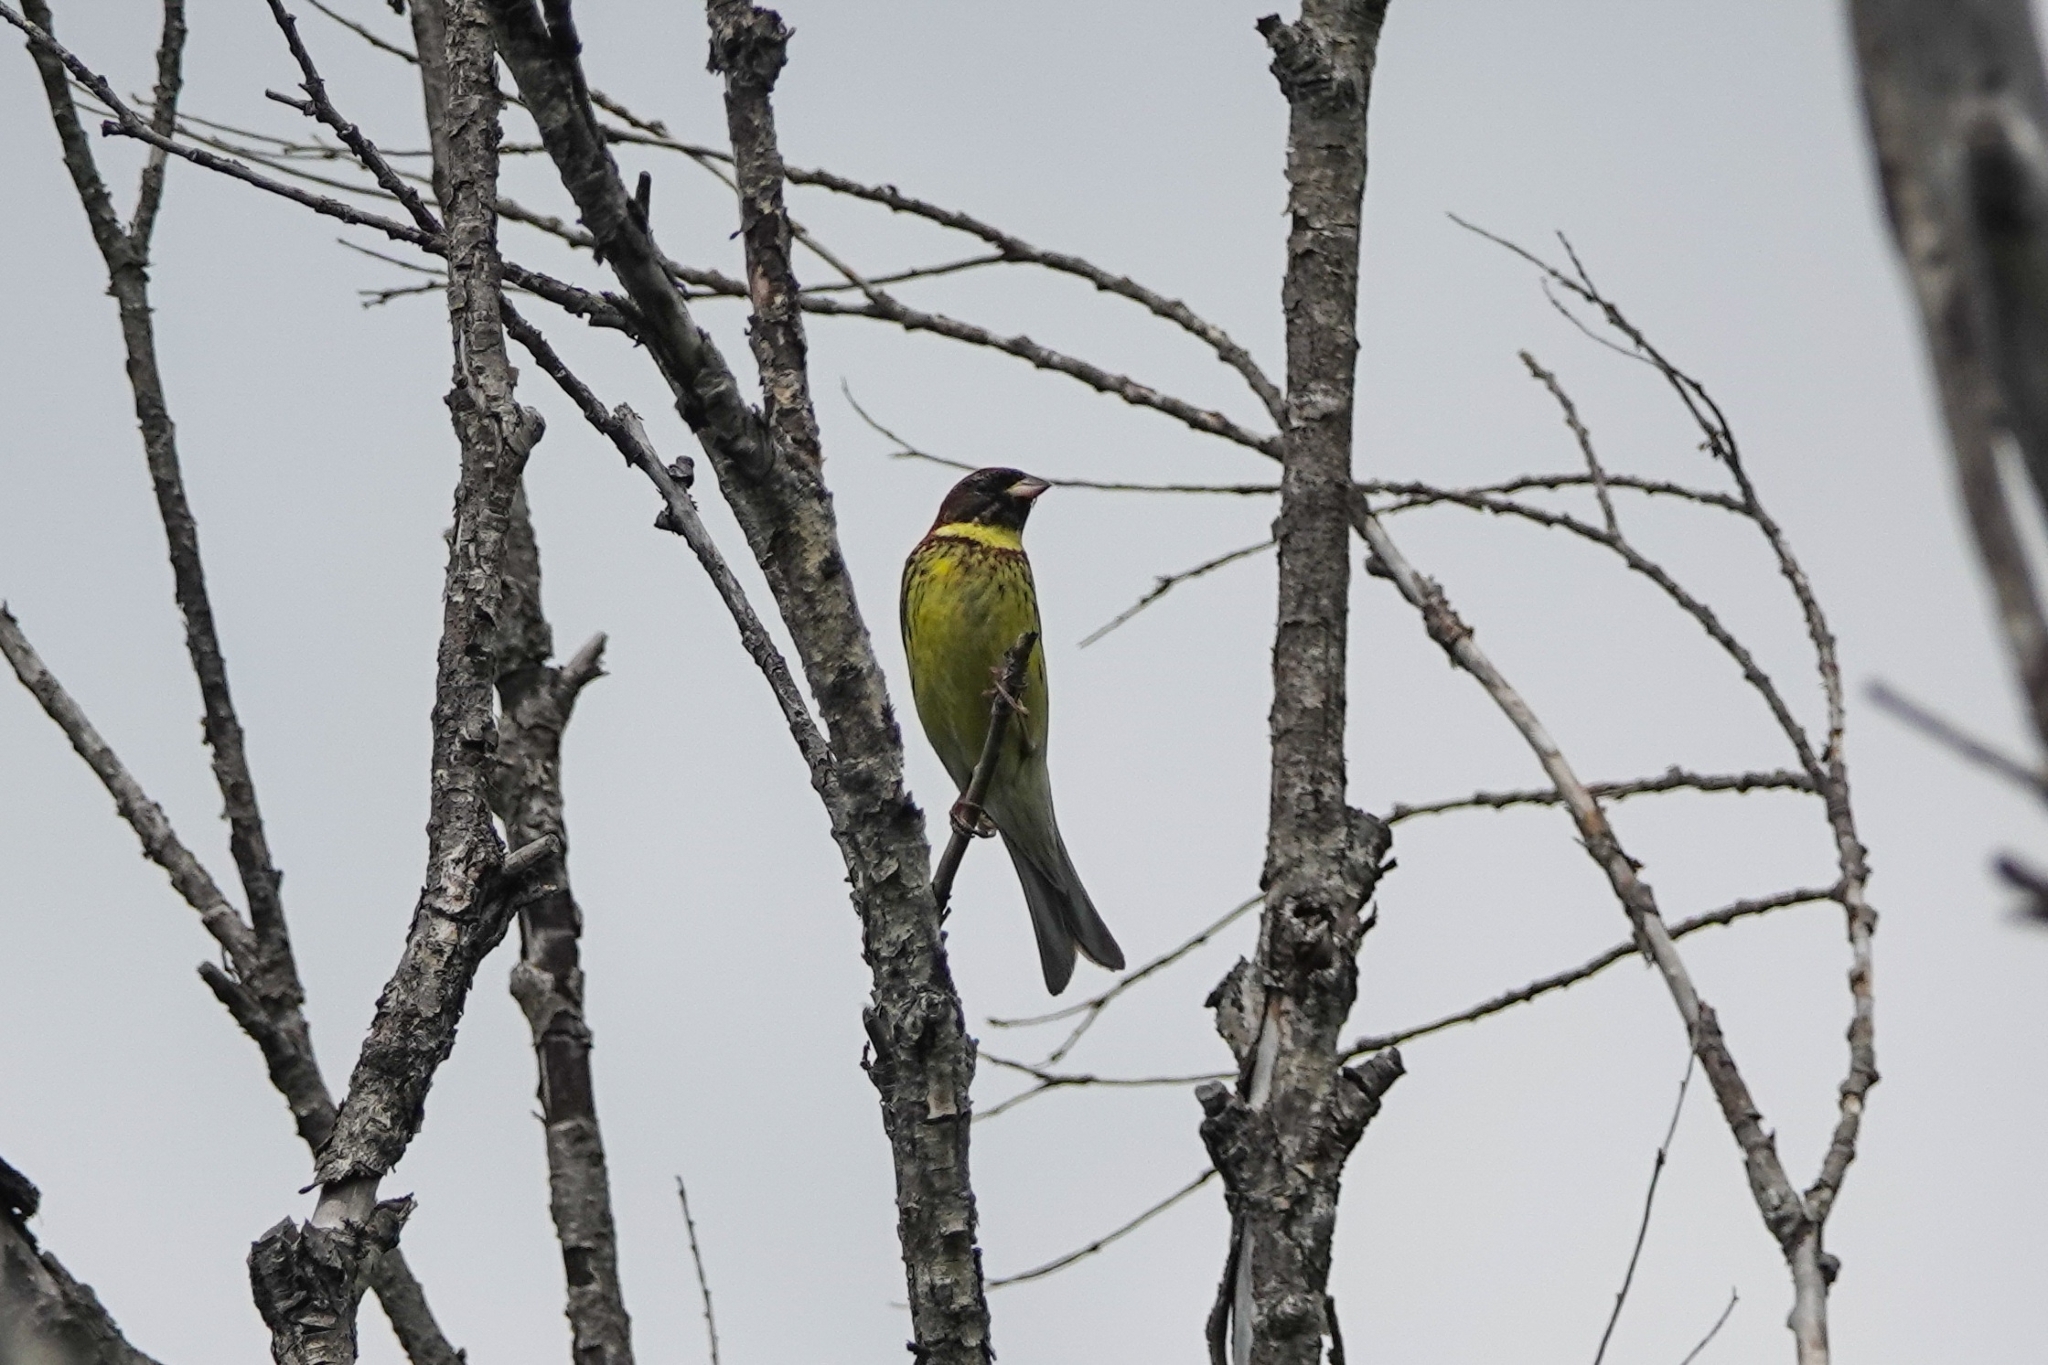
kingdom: Animalia
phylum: Chordata
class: Aves
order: Passeriformes
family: Emberizidae
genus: Emberiza
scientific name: Emberiza aureola
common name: Yellow-breasted bunting
